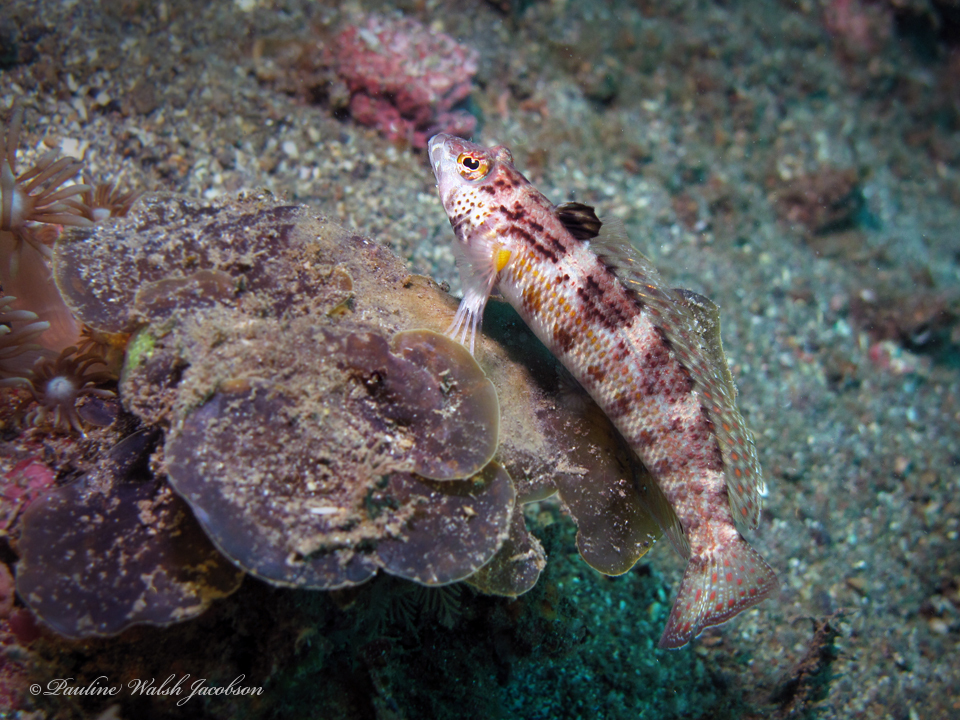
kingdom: Animalia
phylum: Chordata
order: Perciformes
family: Pinguipedidae
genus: Parapercis
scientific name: Parapercis snyderi
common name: U-mark sandperch
